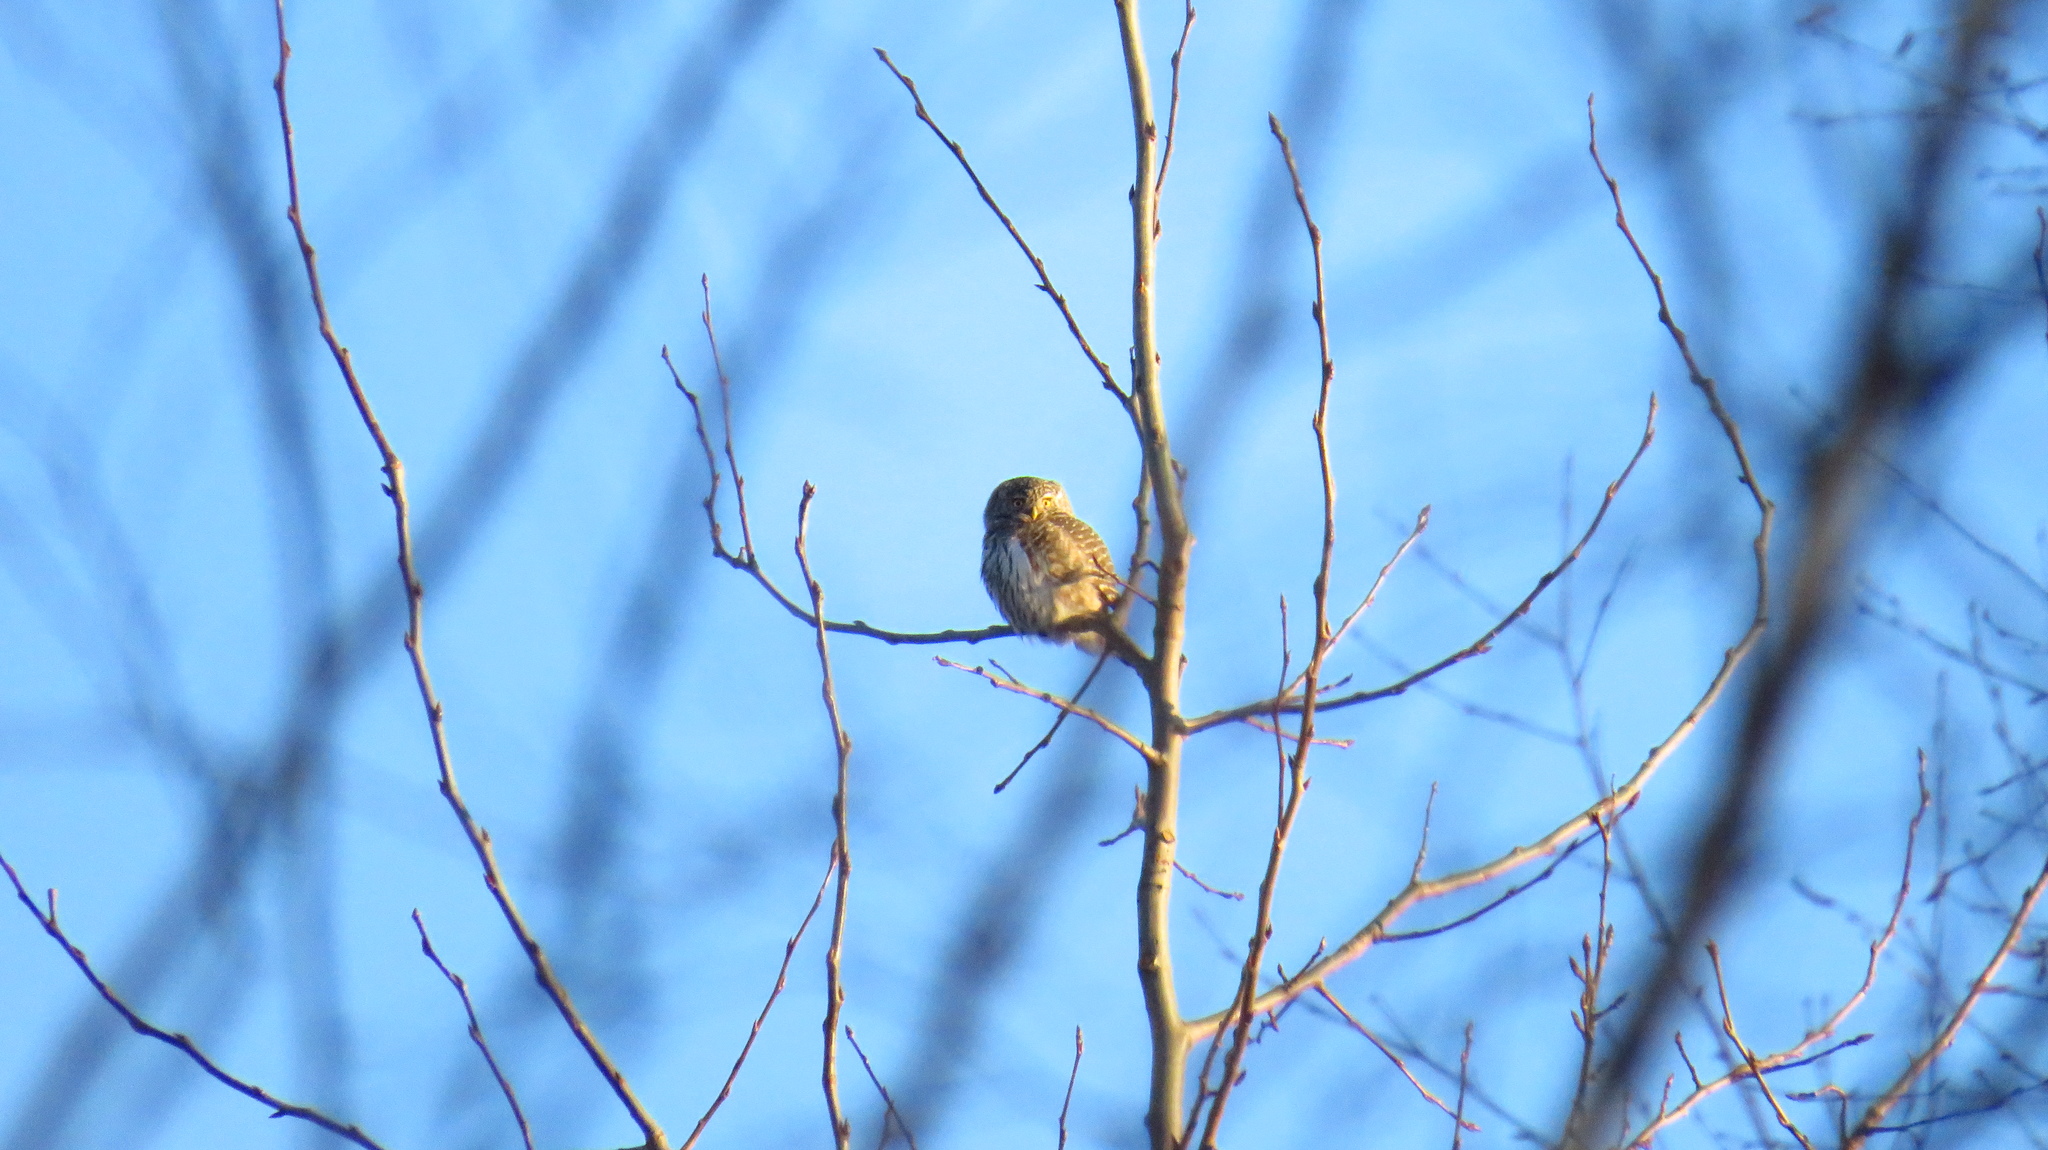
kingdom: Animalia
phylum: Chordata
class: Aves
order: Strigiformes
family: Strigidae
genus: Glaucidium
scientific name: Glaucidium passerinum
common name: Eurasian pygmy owl
